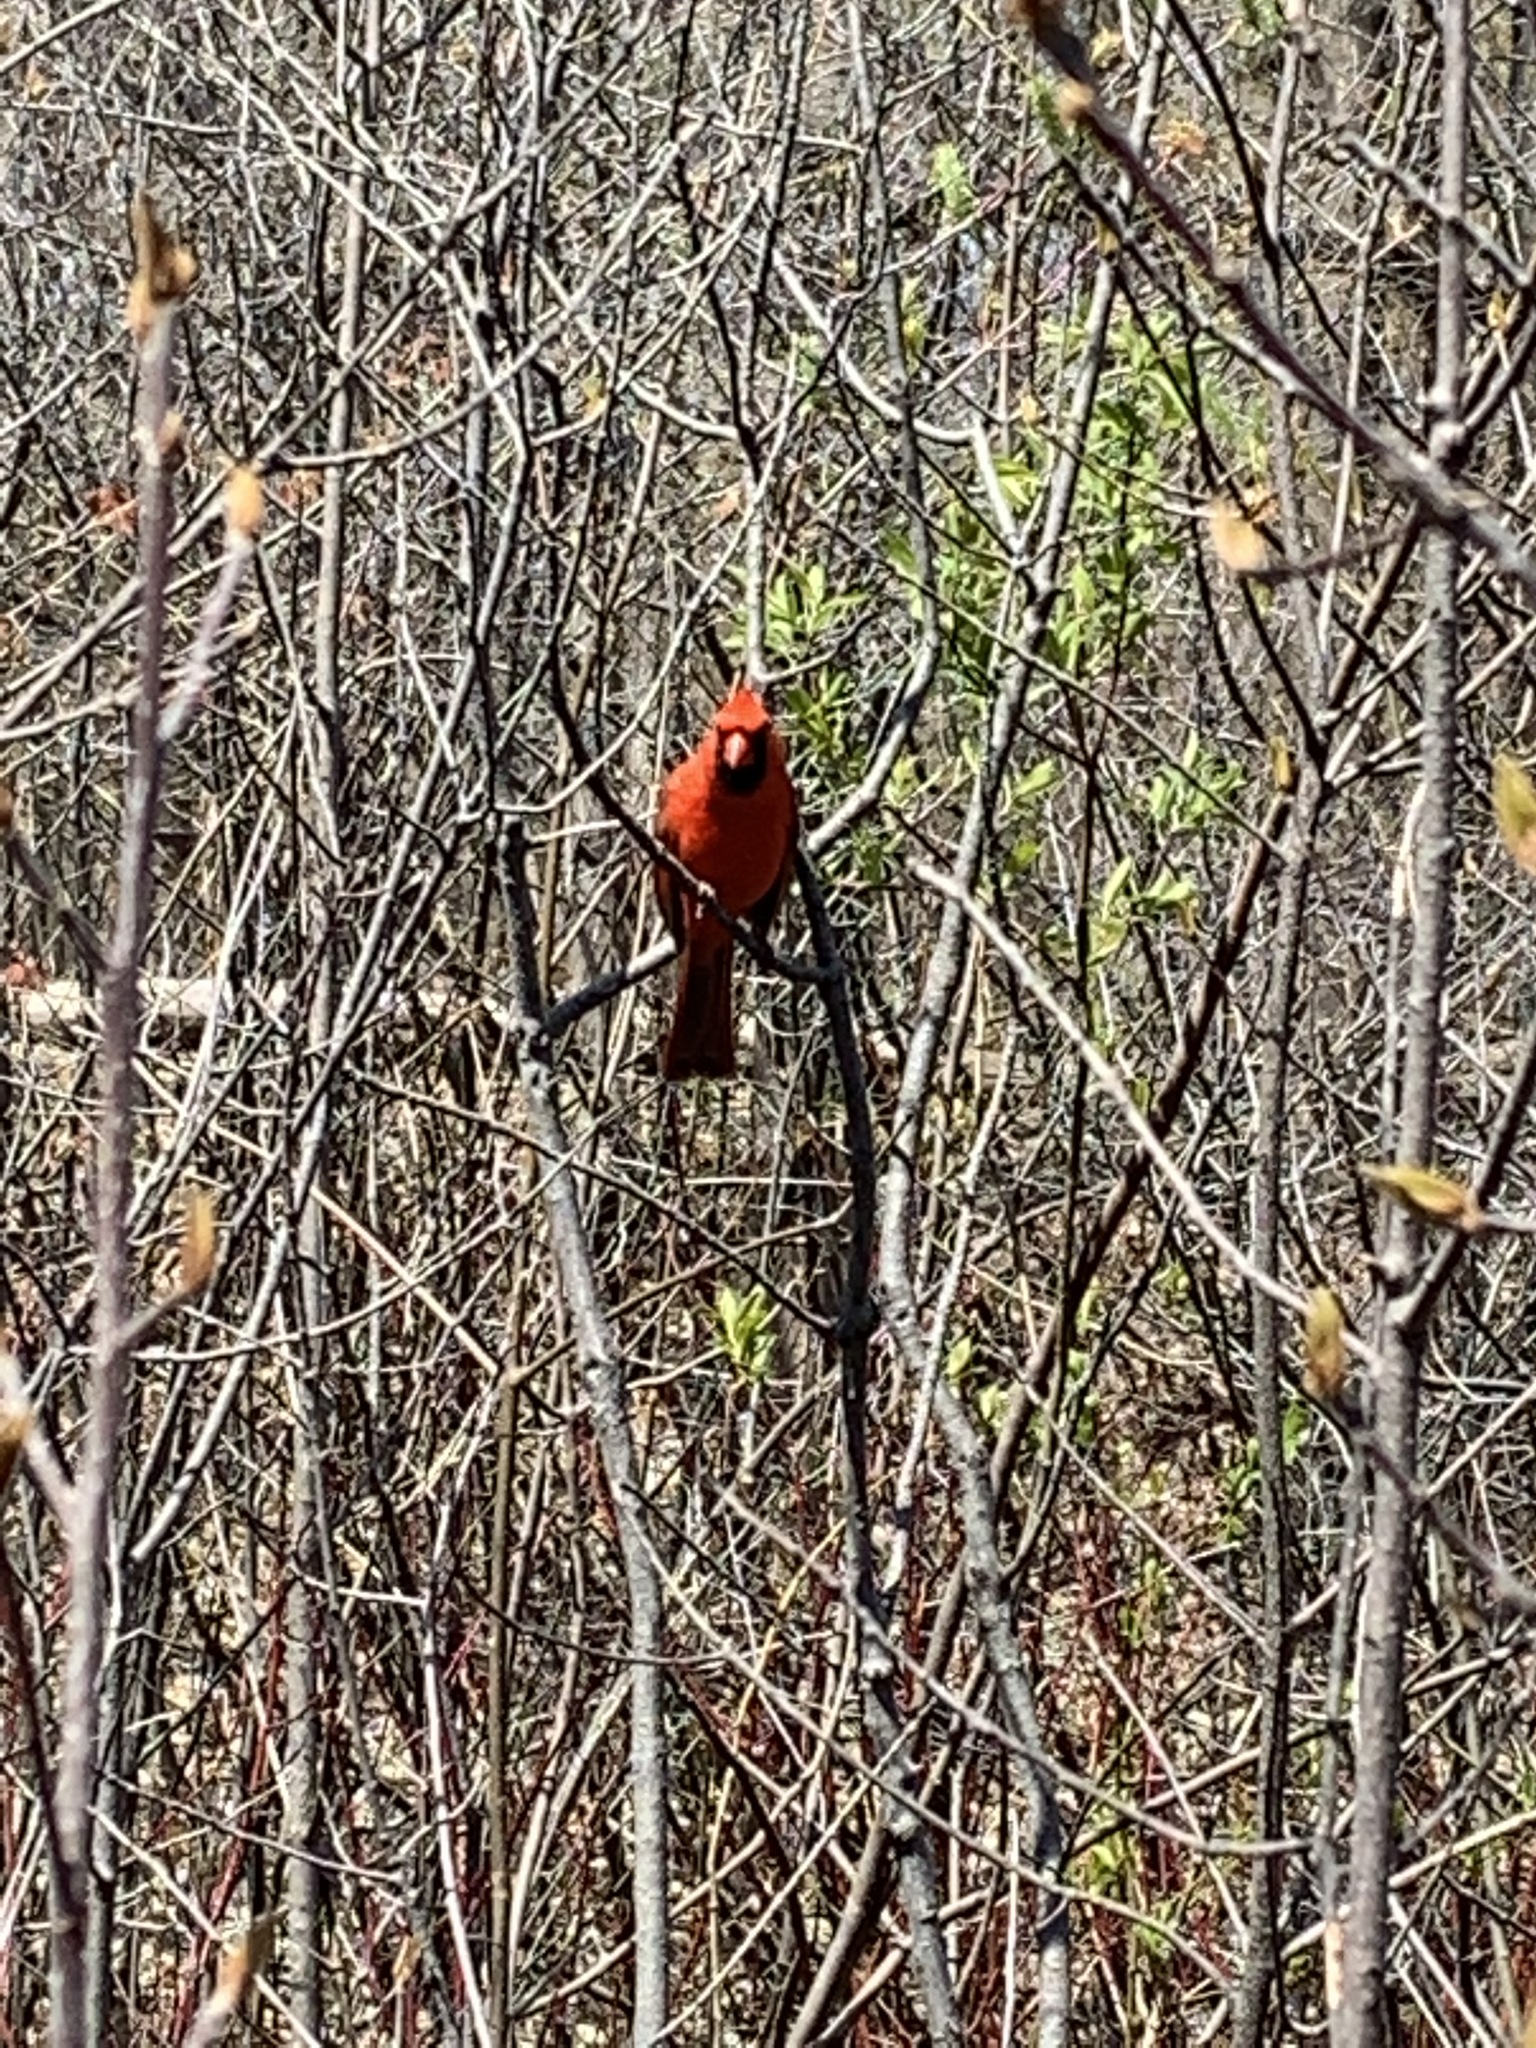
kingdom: Animalia
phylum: Chordata
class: Aves
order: Passeriformes
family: Cardinalidae
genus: Cardinalis
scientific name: Cardinalis cardinalis
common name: Northern cardinal
